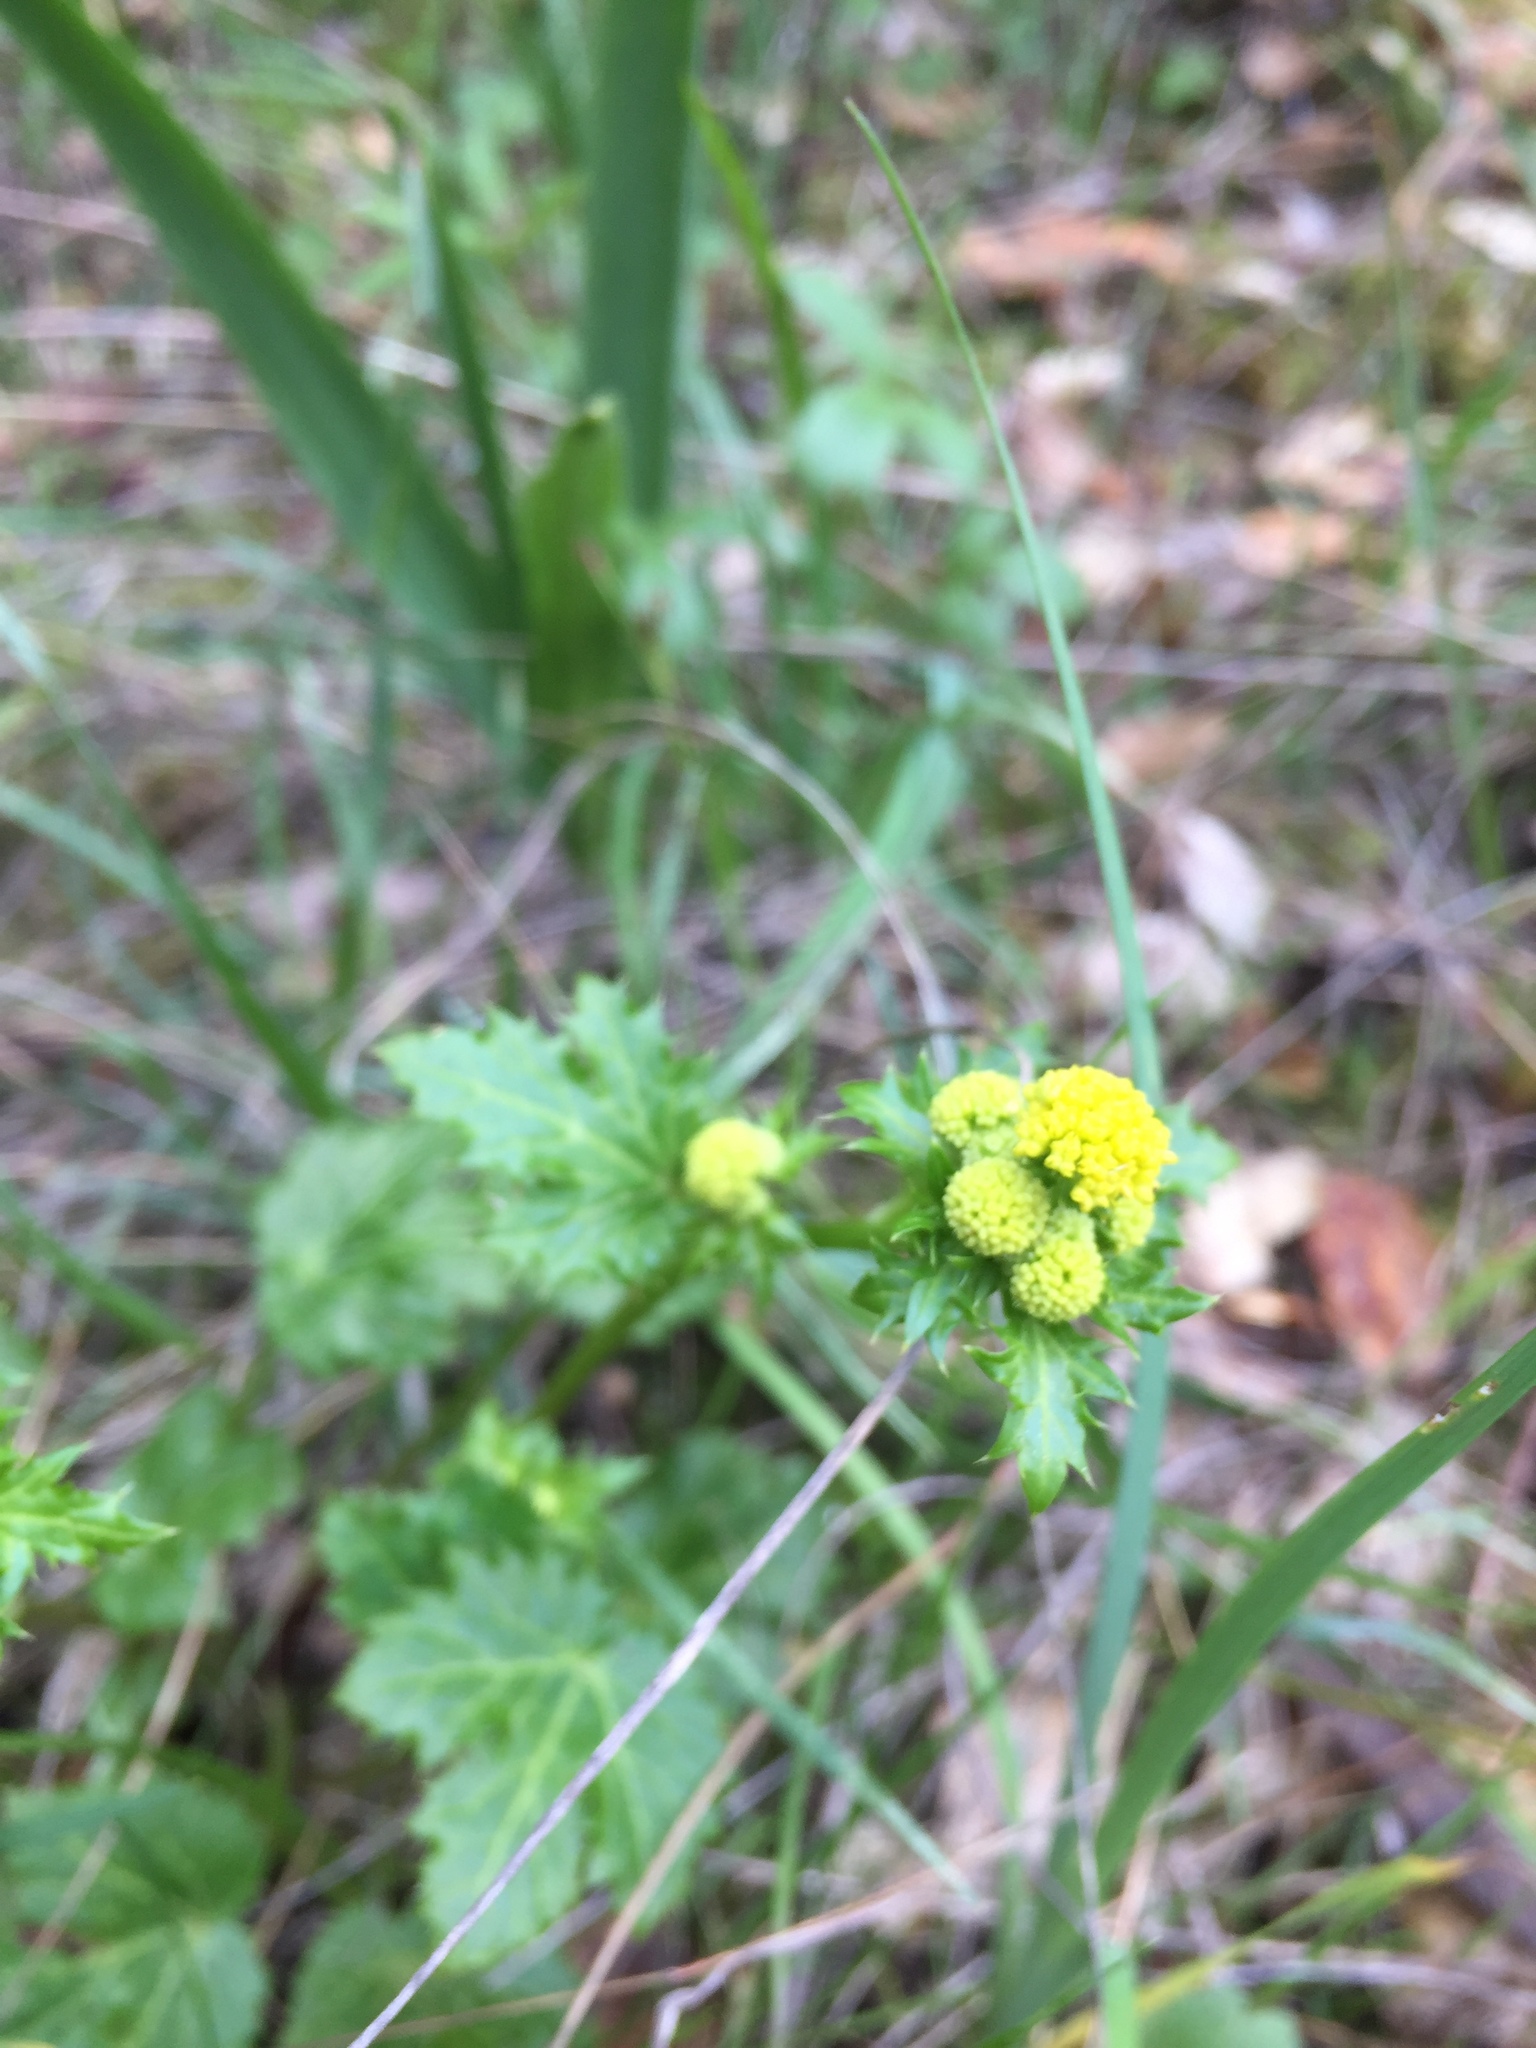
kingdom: Plantae
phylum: Tracheophyta
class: Magnoliopsida
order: Apiales
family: Apiaceae
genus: Sanicula
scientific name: Sanicula crassicaulis
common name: Western snakeroot
